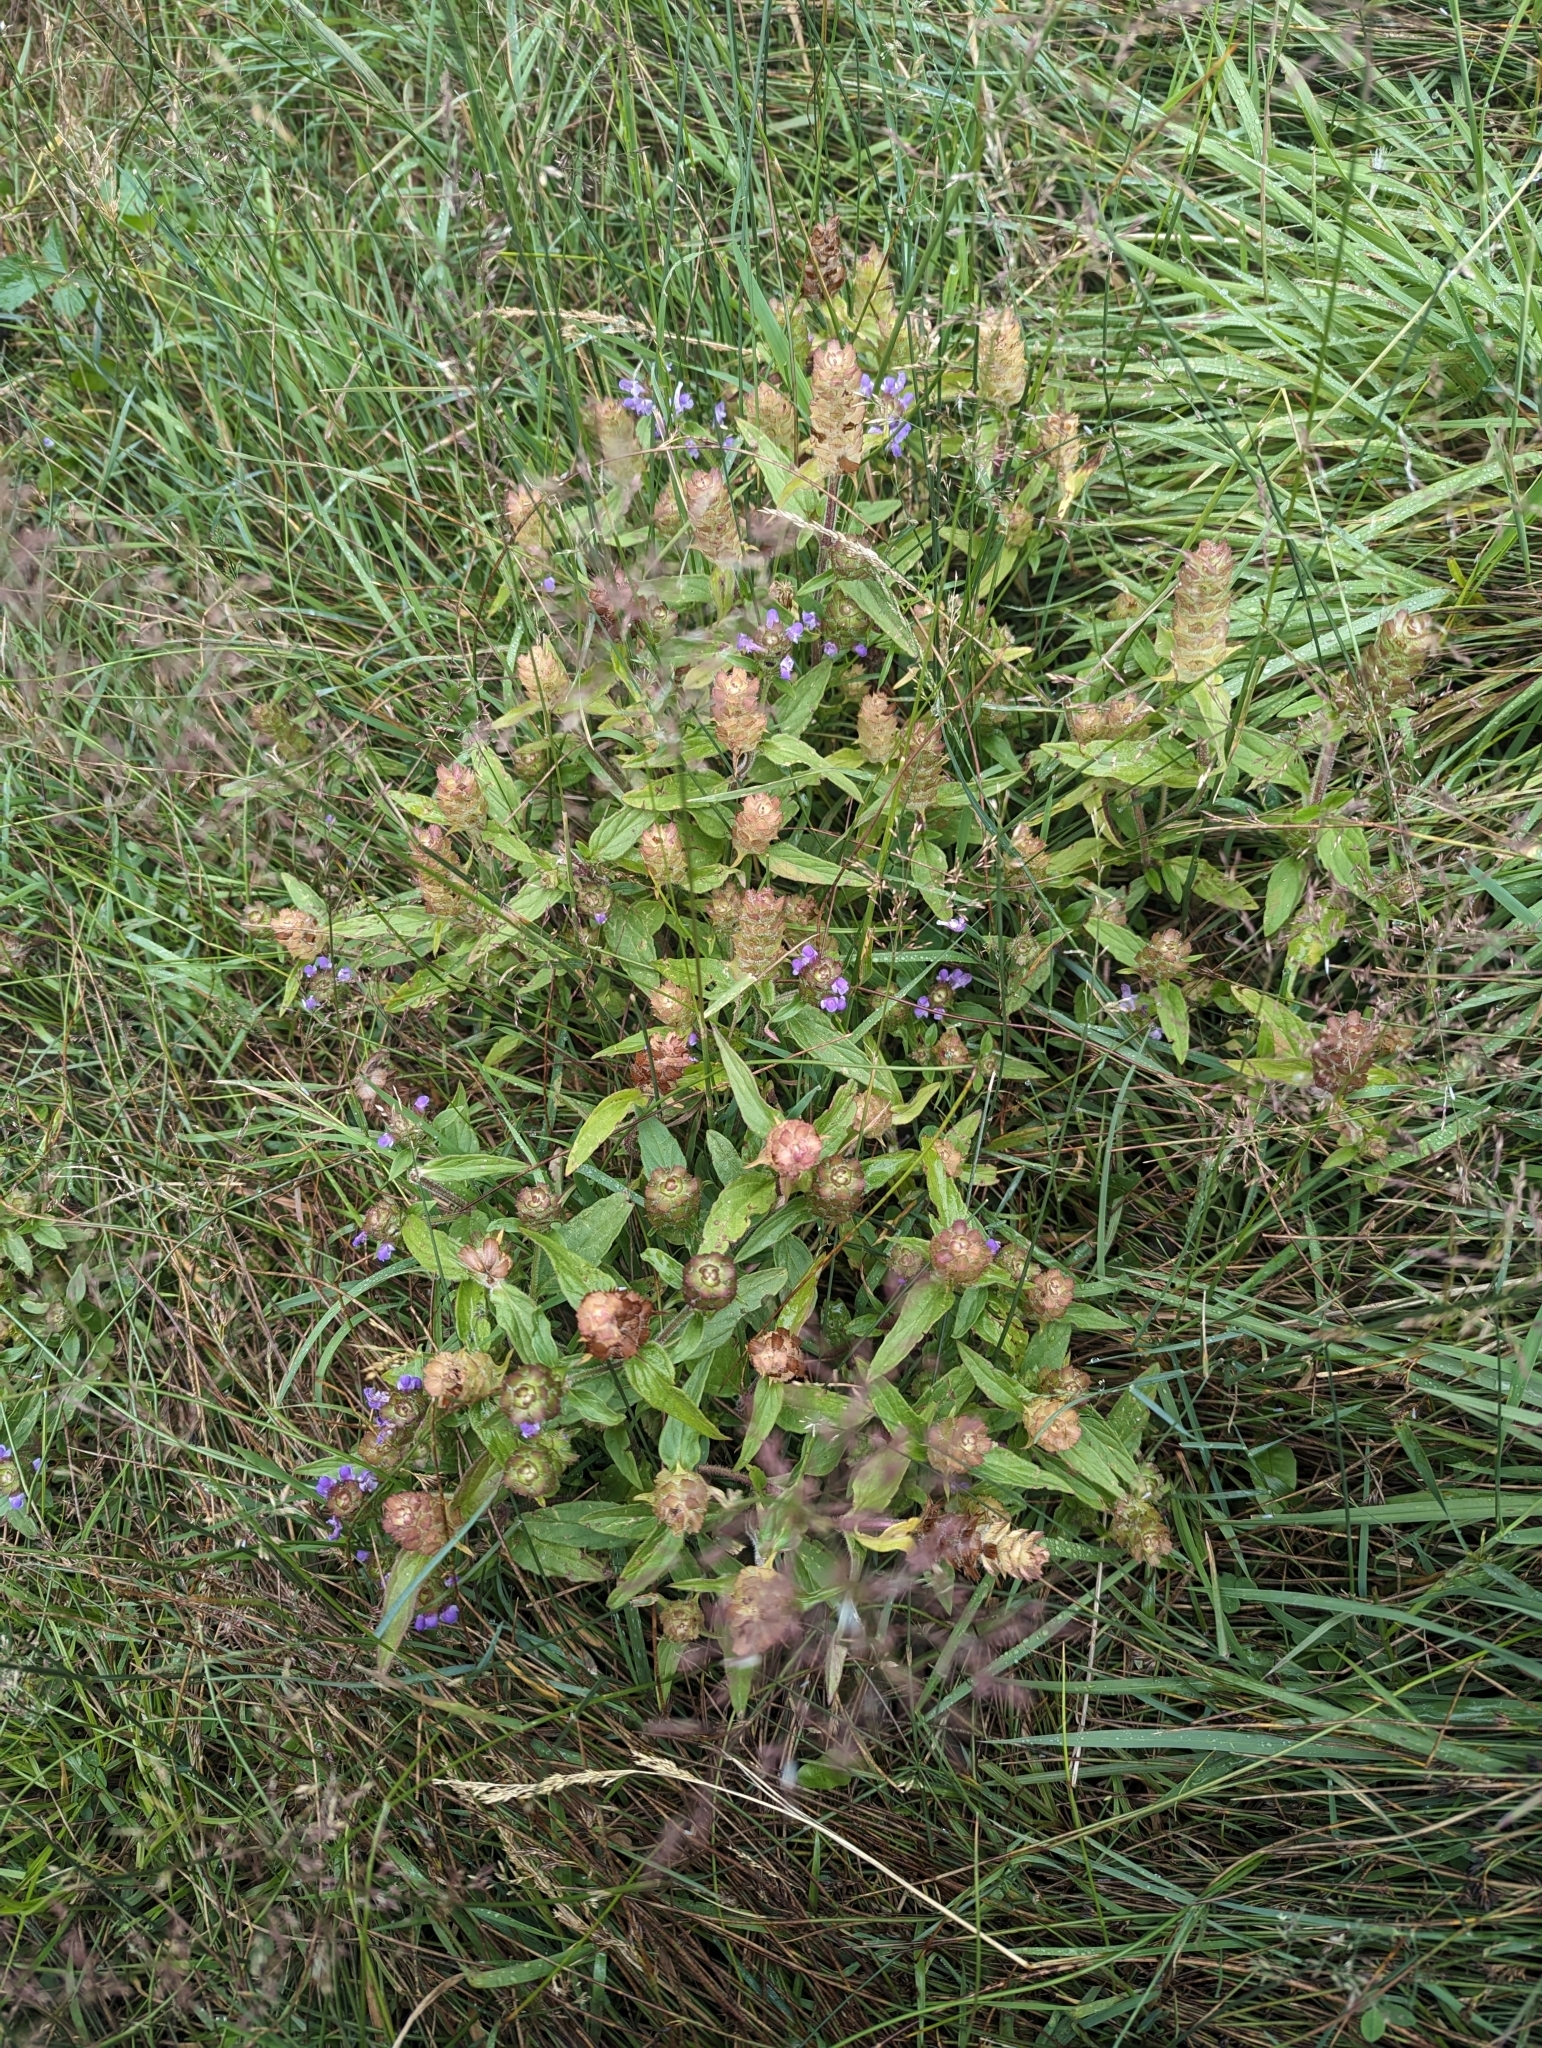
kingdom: Plantae
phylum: Tracheophyta
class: Magnoliopsida
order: Lamiales
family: Lamiaceae
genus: Prunella
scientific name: Prunella vulgaris
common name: Heal-all
